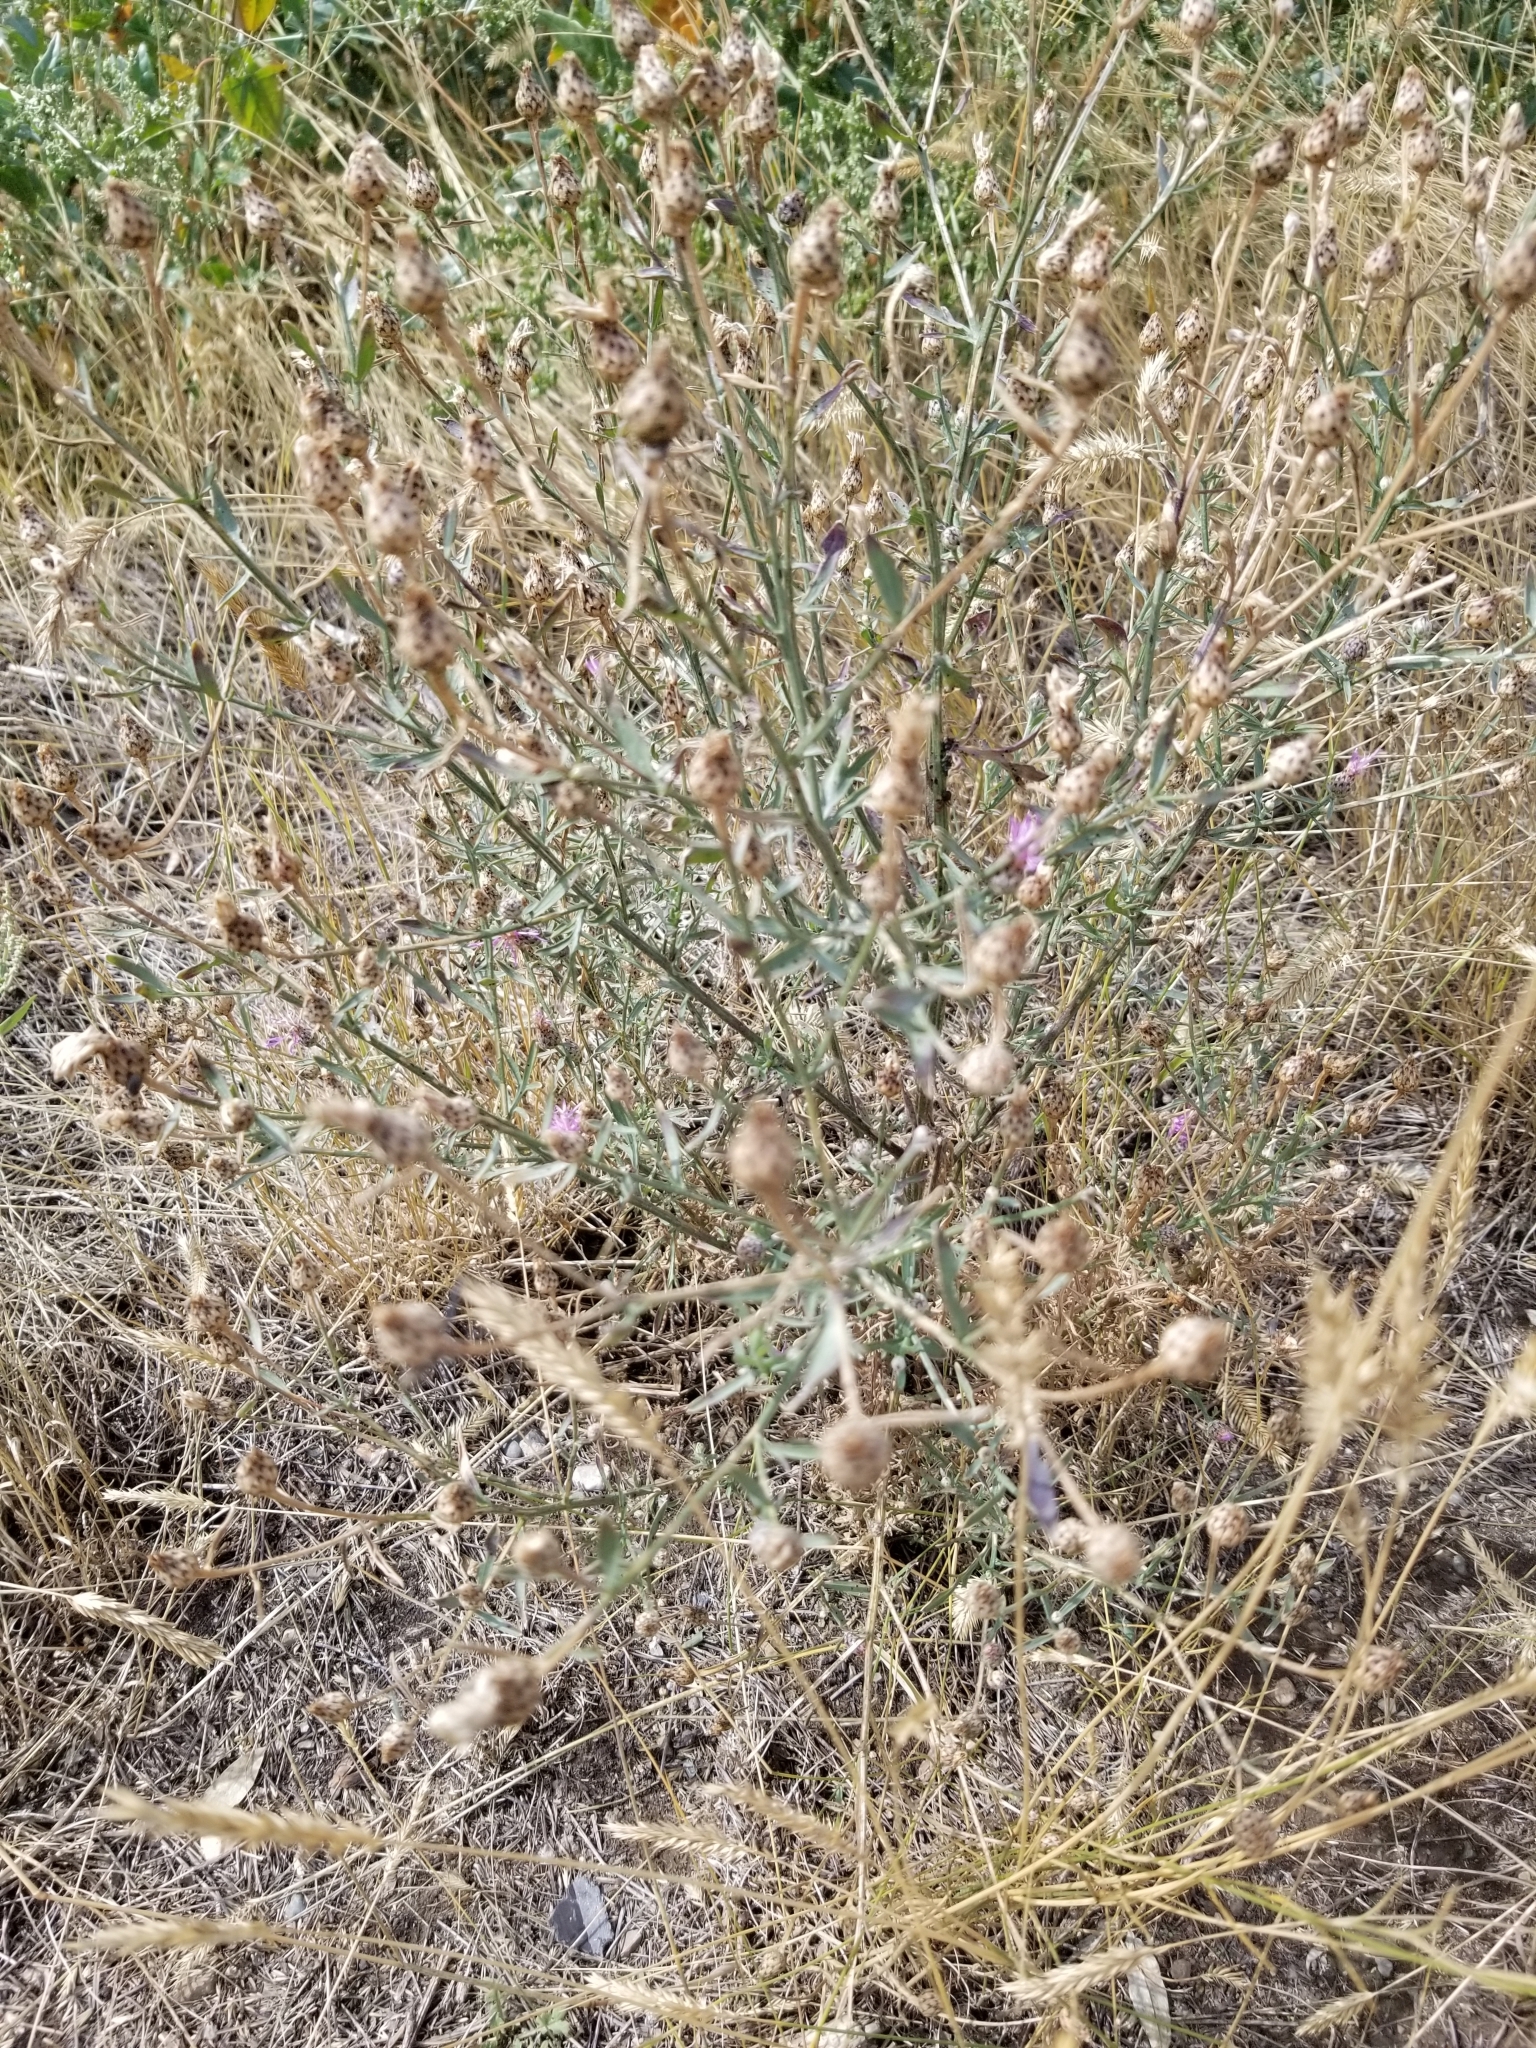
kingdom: Plantae
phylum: Tracheophyta
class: Magnoliopsida
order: Asterales
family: Asteraceae
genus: Centaurea
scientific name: Centaurea stoebe
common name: Spotted knapweed
